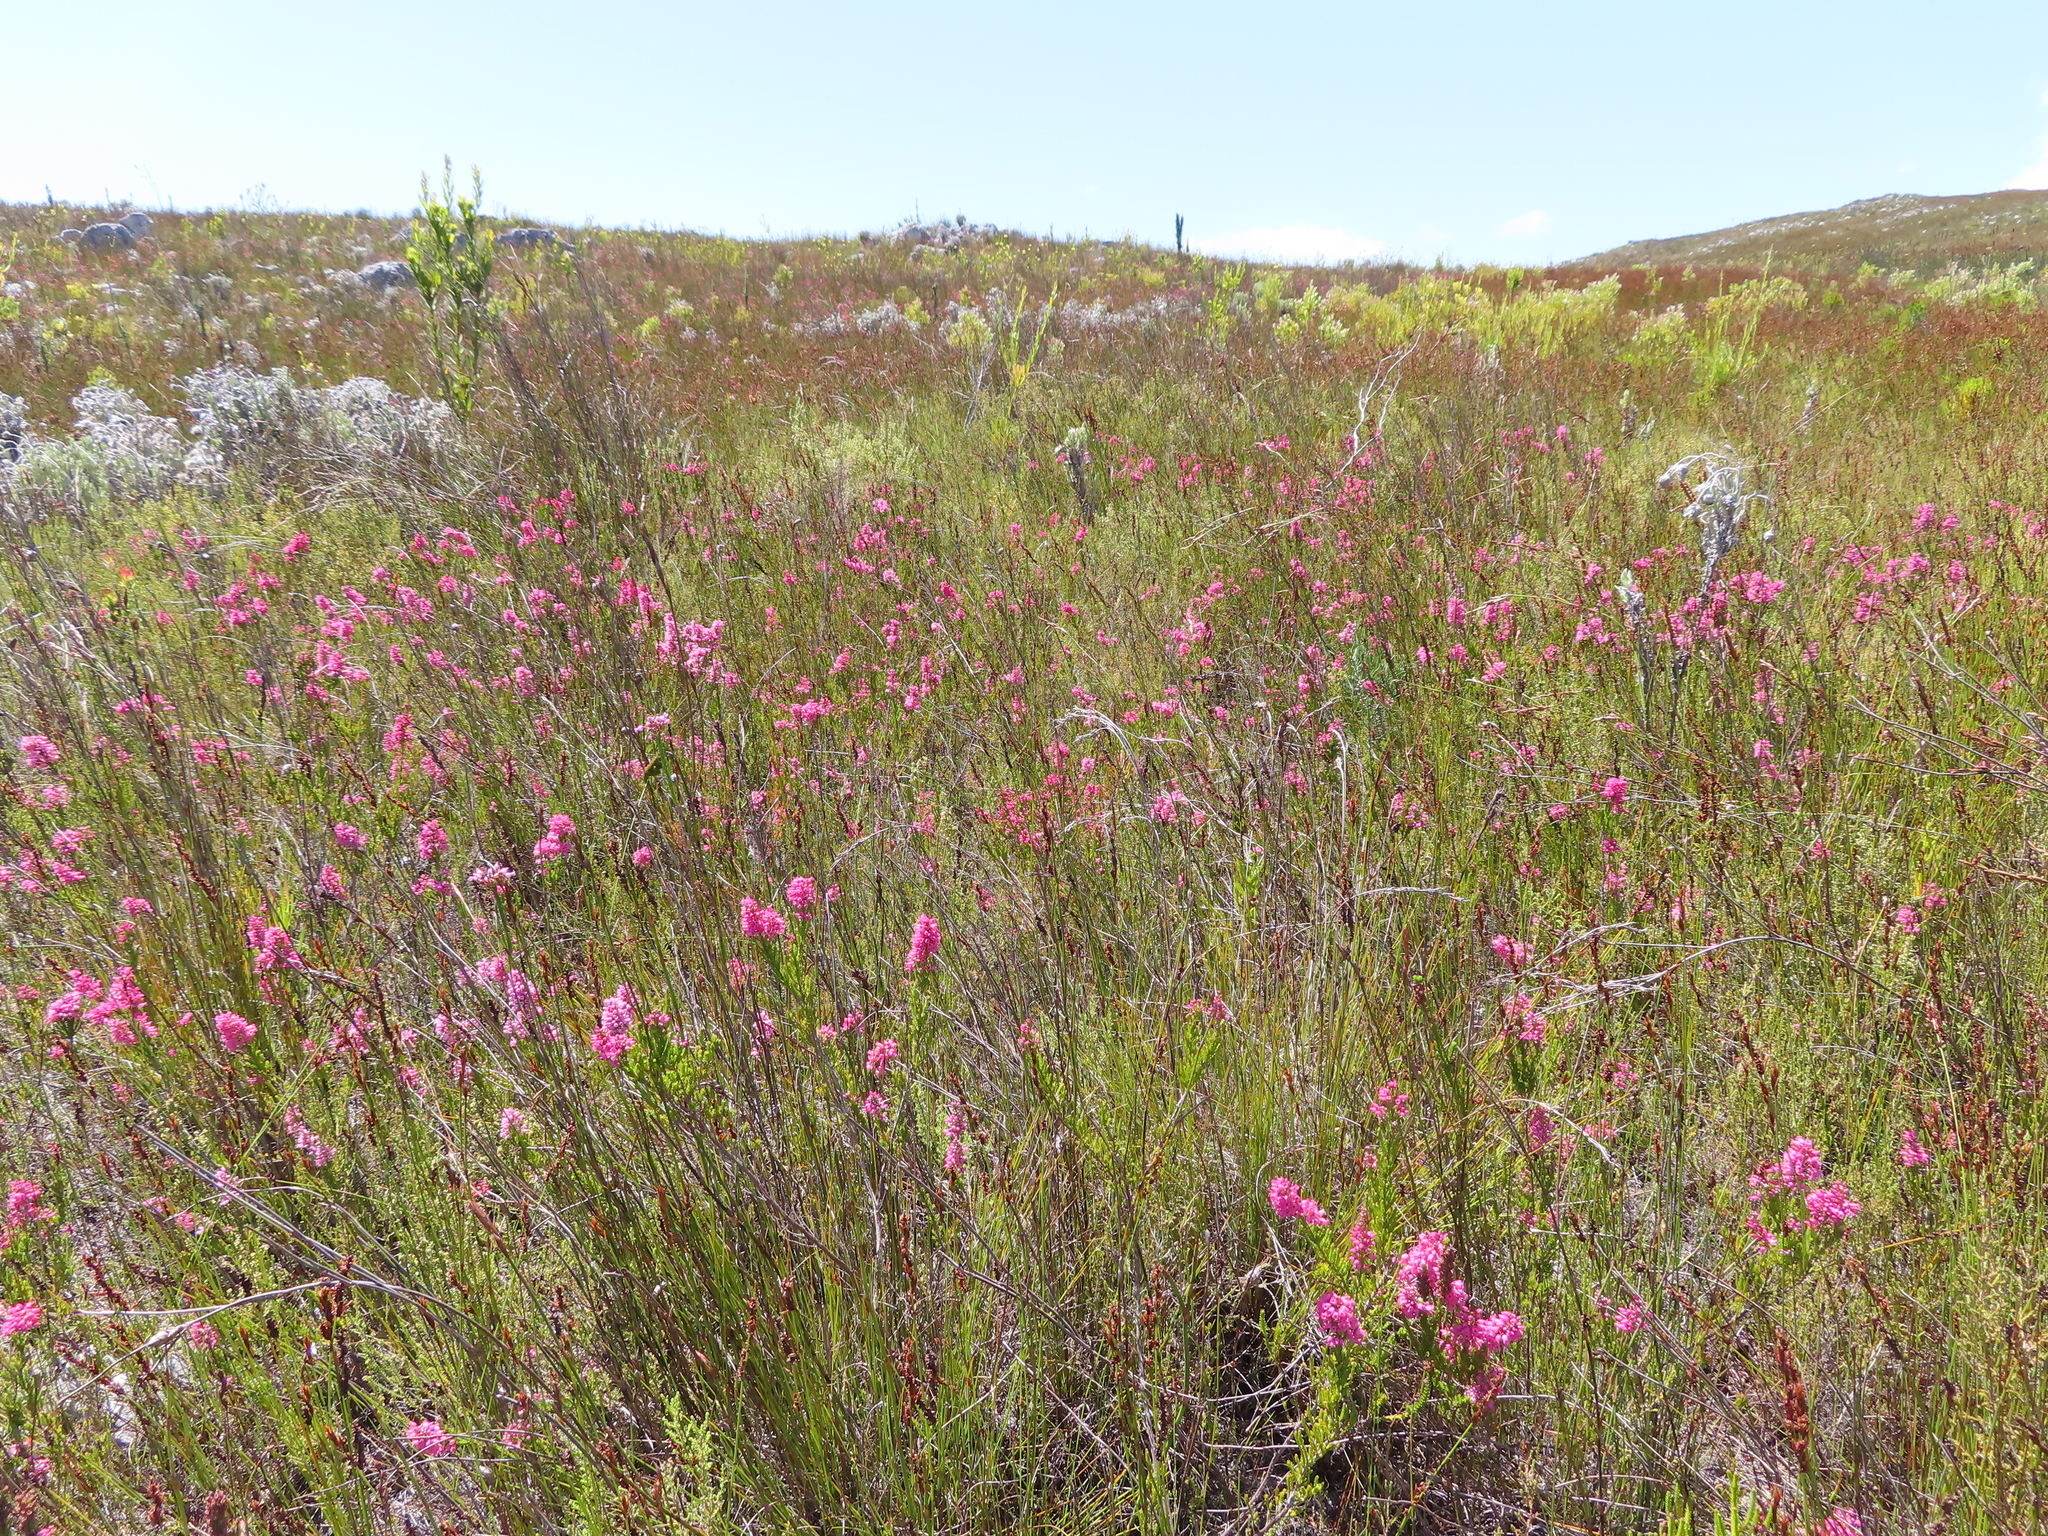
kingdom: Plantae
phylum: Tracheophyta
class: Magnoliopsida
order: Ericales
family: Ericaceae
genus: Erica
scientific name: Erica tenella
